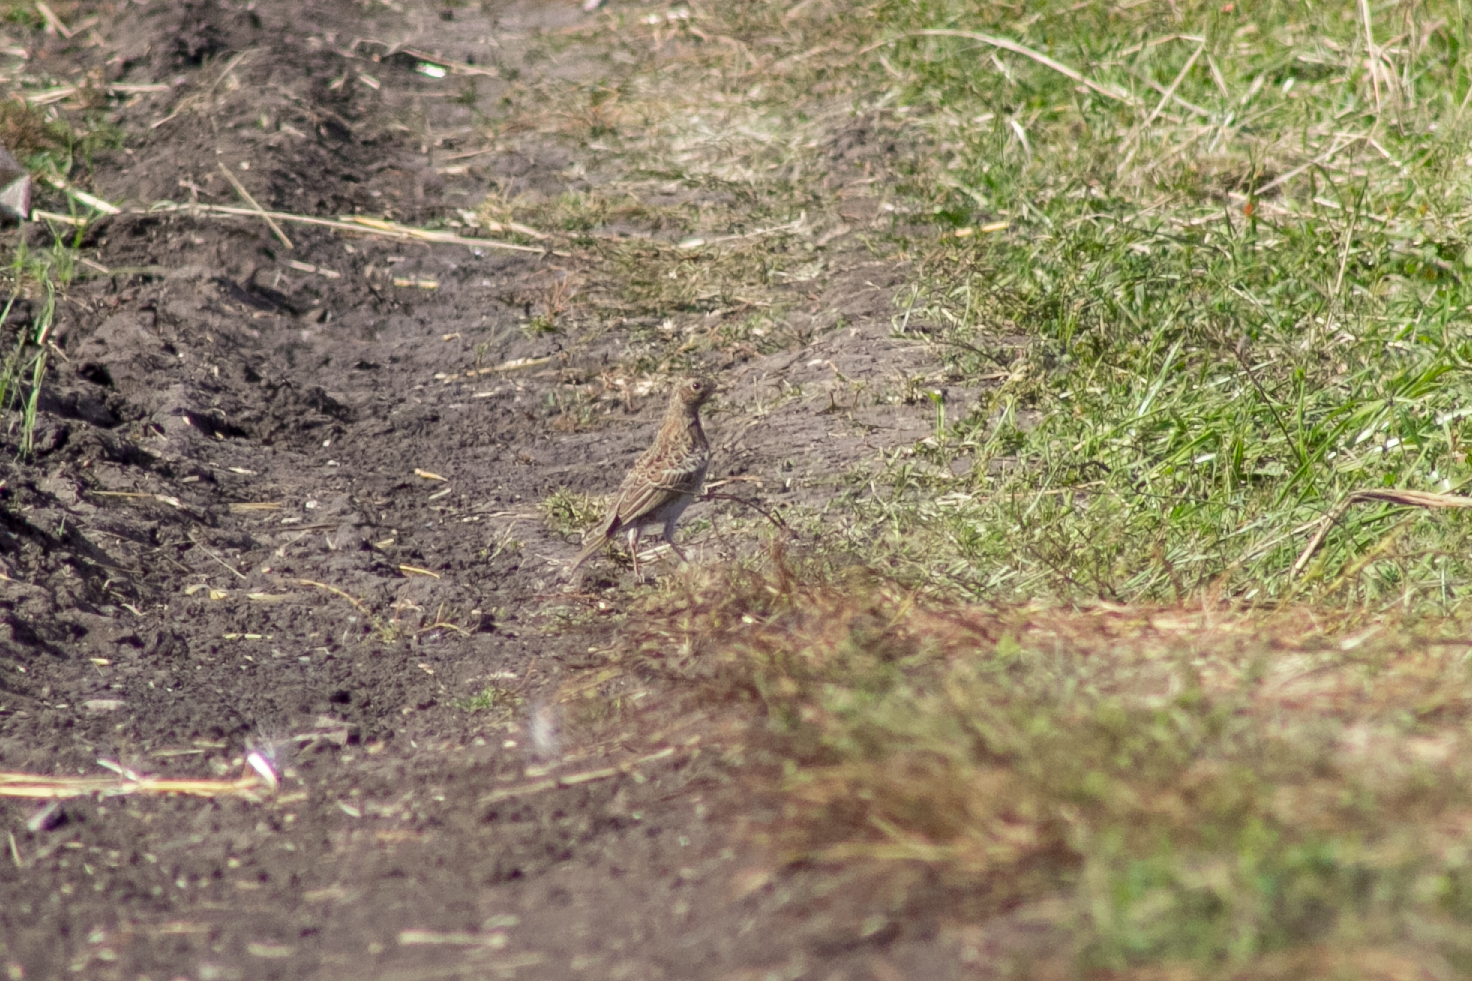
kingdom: Animalia
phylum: Chordata
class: Aves
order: Passeriformes
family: Alaudidae
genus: Alauda
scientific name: Alauda arvensis
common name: Eurasian skylark
